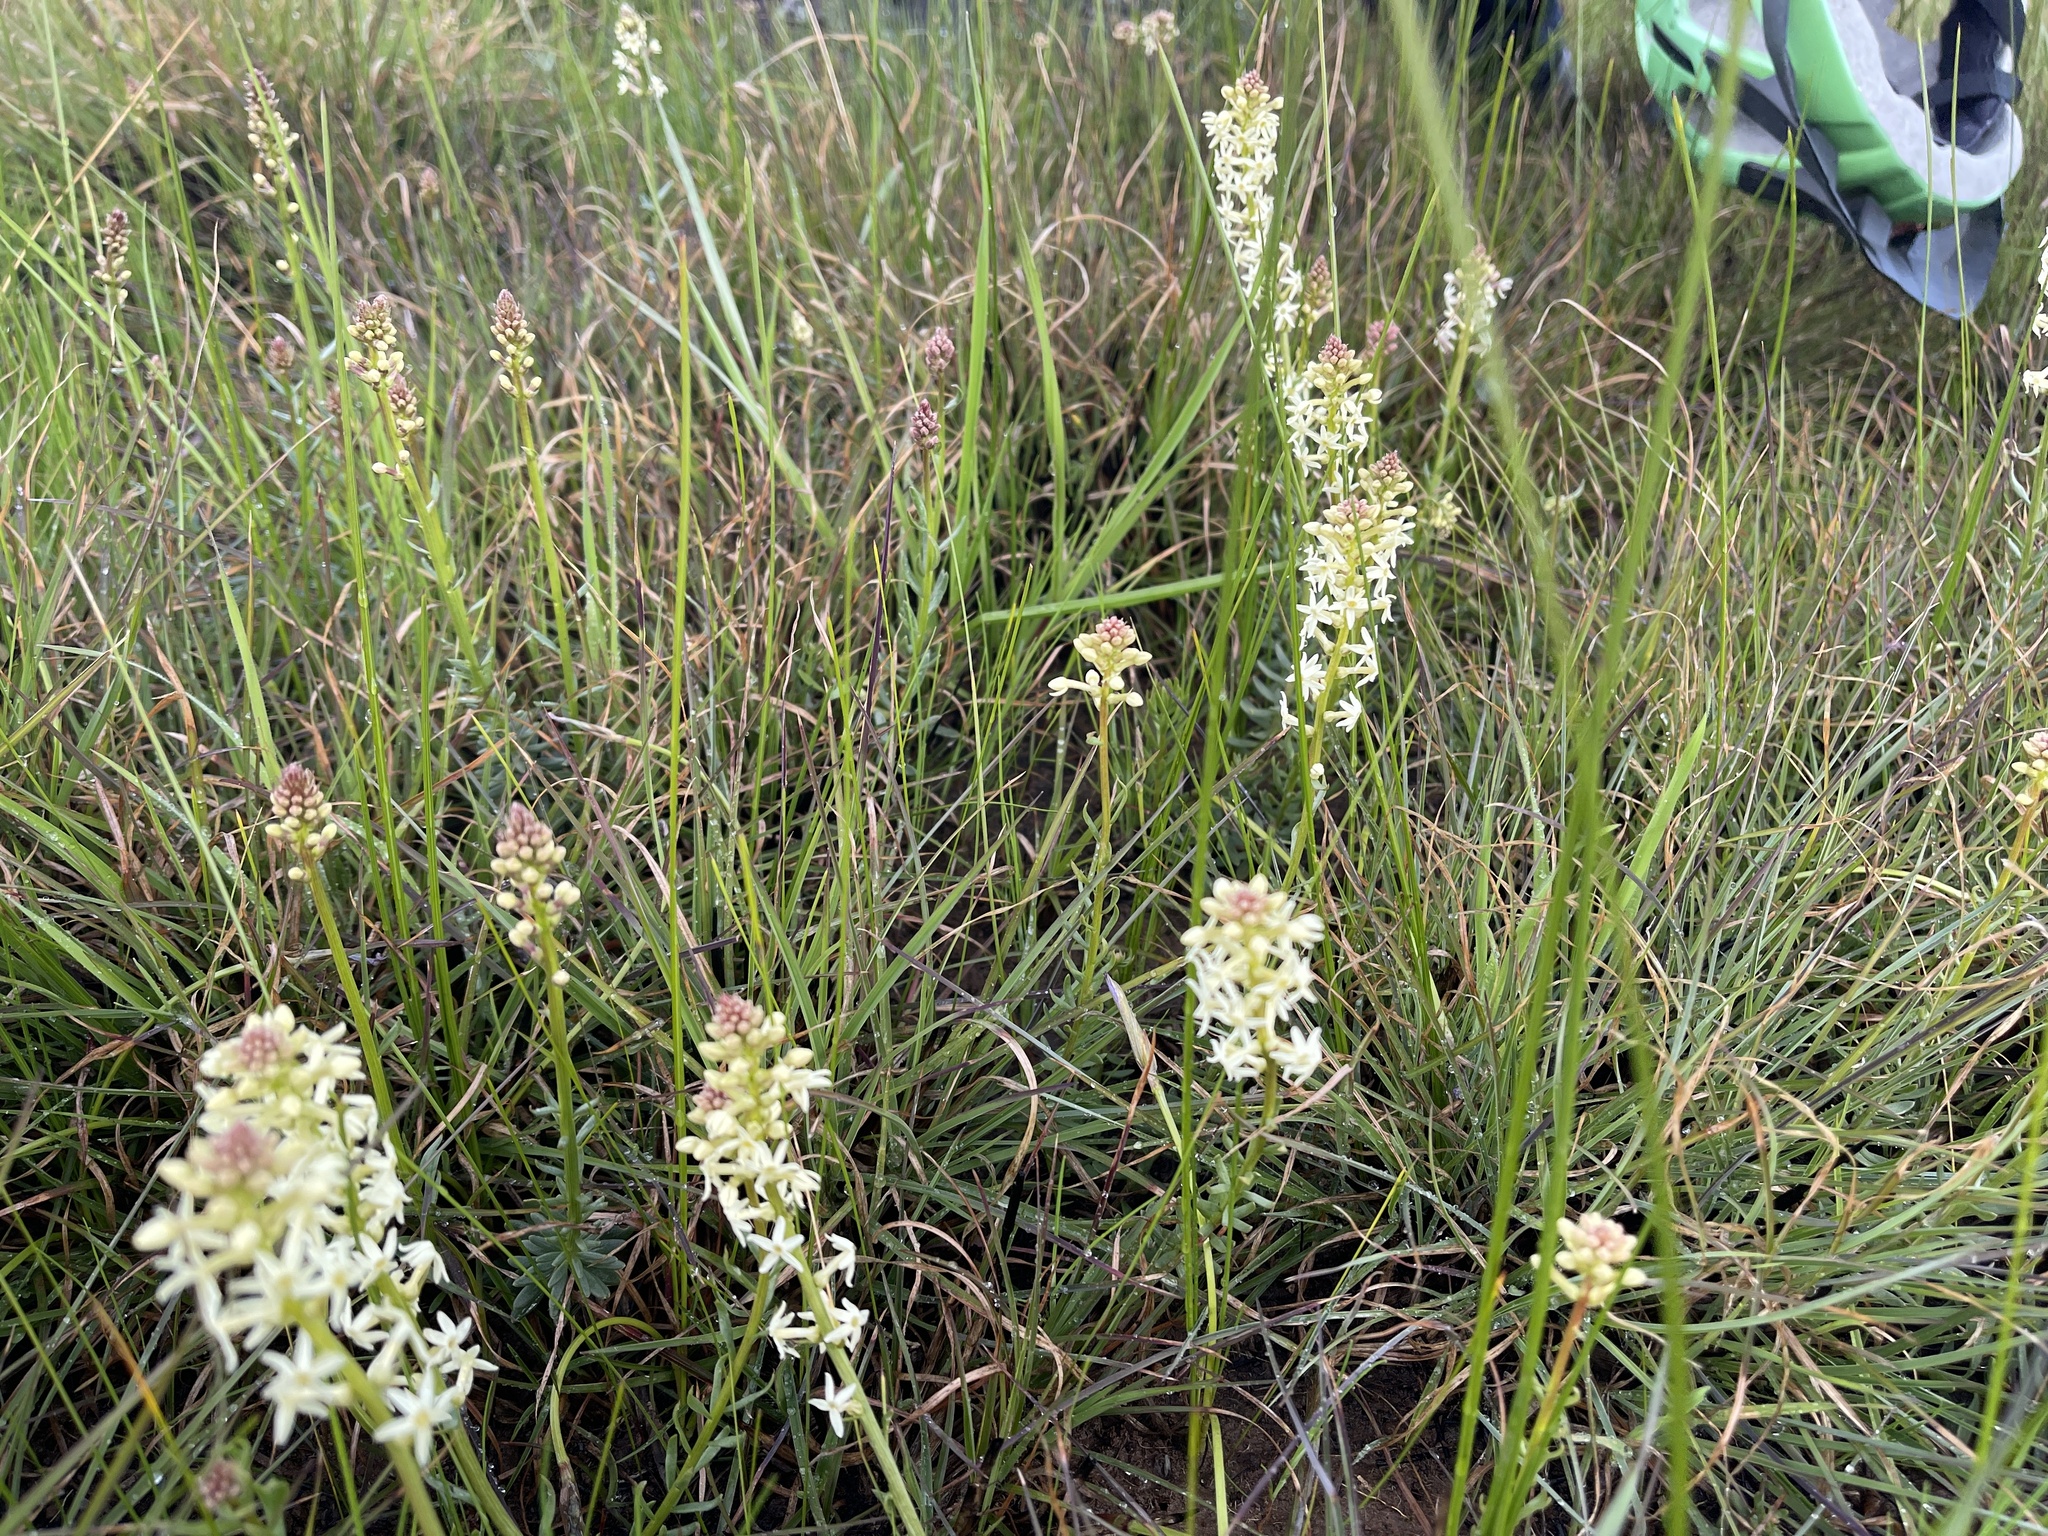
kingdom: Plantae
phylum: Tracheophyta
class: Magnoliopsida
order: Celastrales
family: Celastraceae
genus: Stackhousia
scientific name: Stackhousia subterranea
